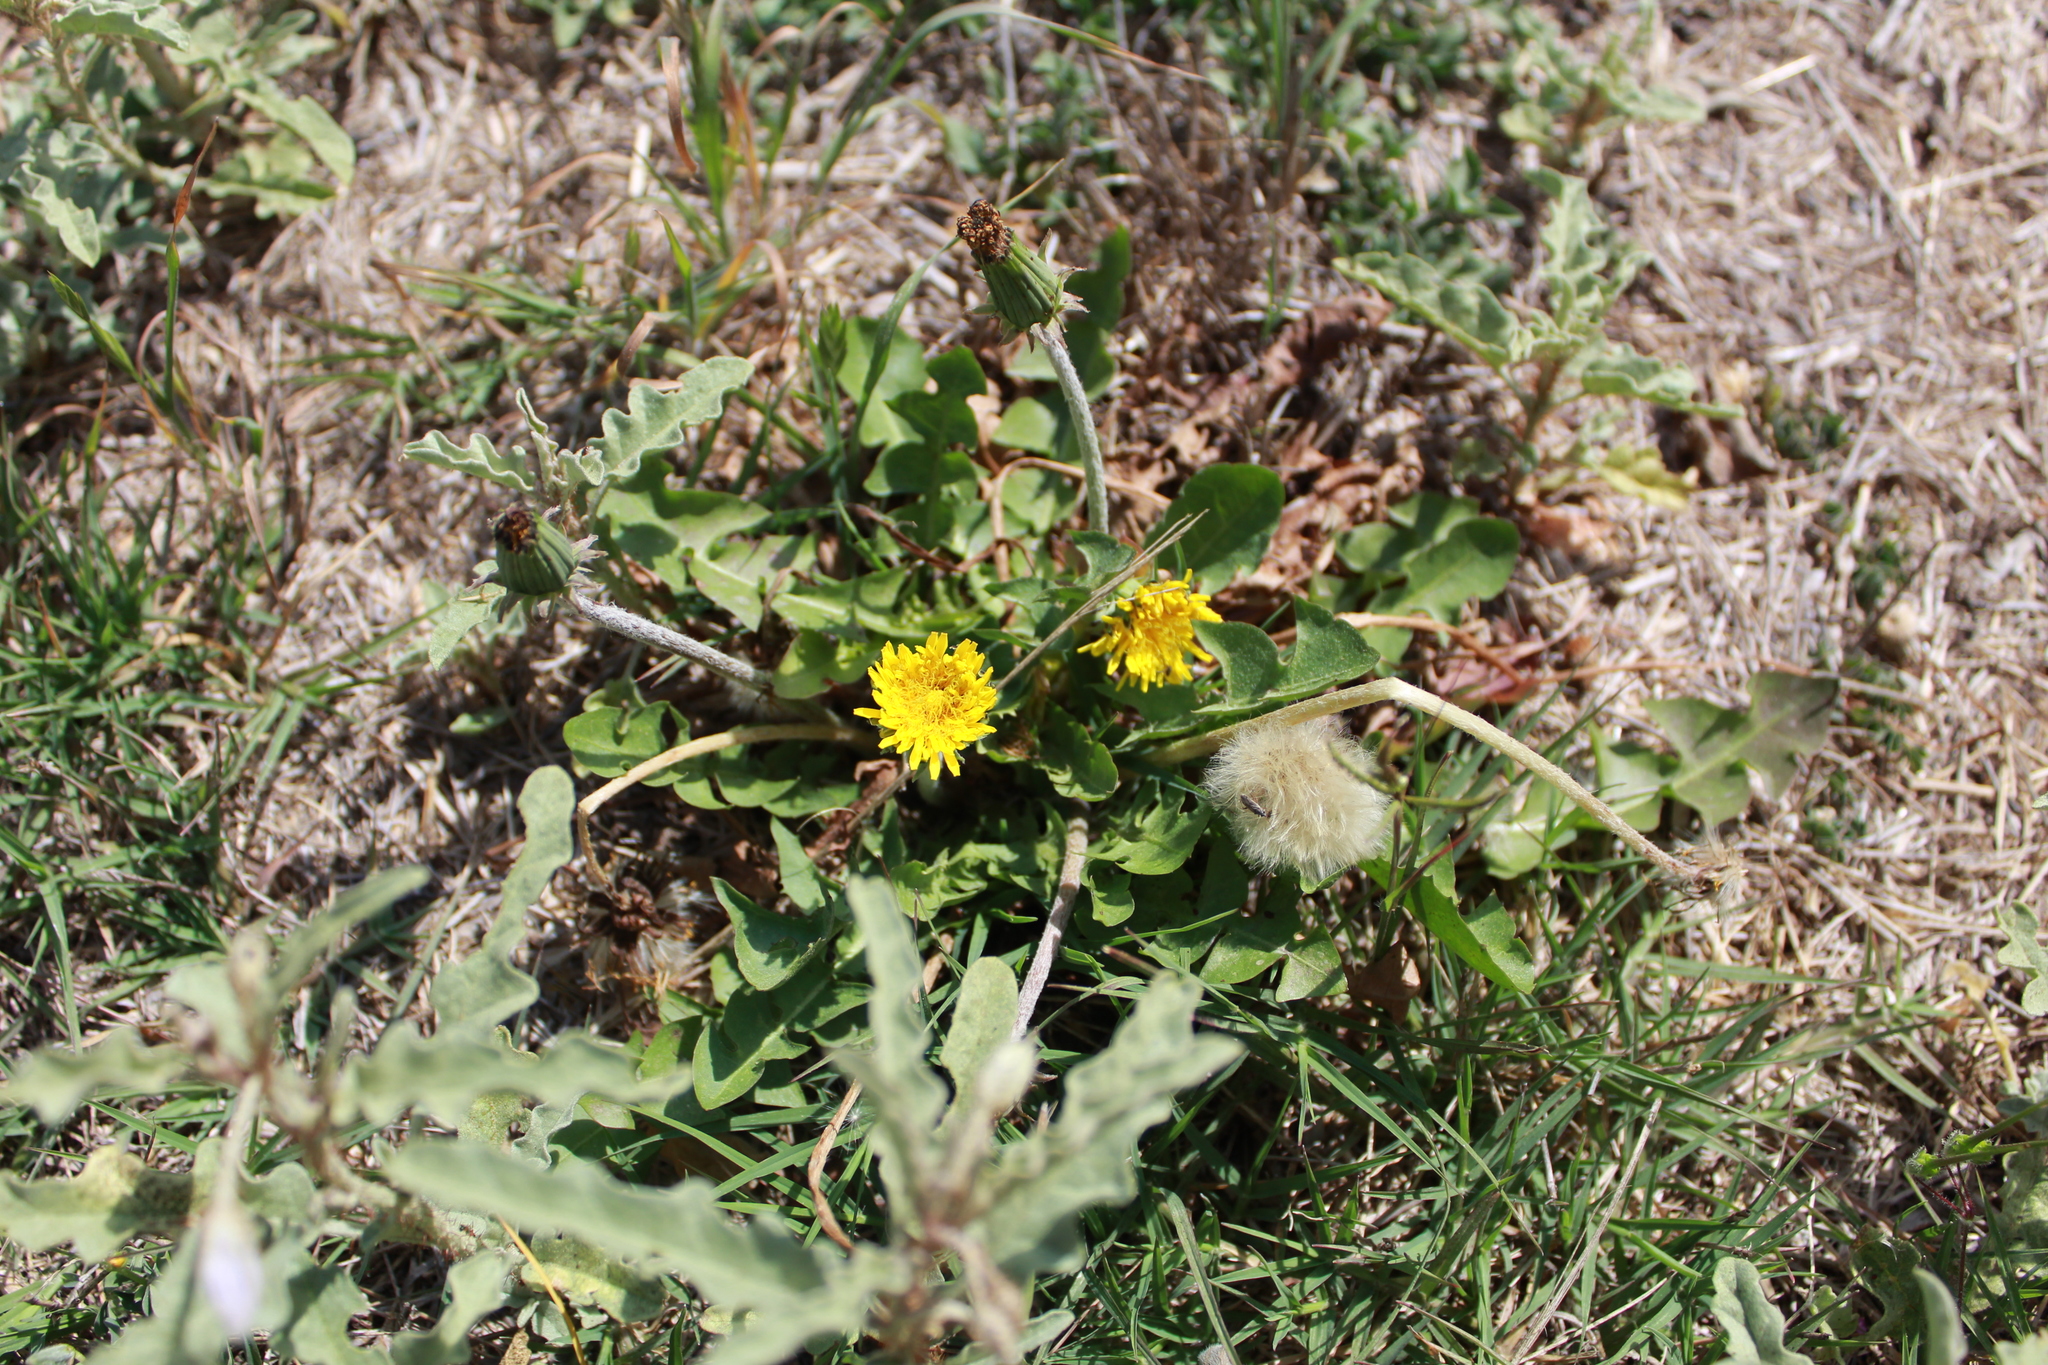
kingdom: Plantae
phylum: Tracheophyta
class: Magnoliopsida
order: Asterales
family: Asteraceae
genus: Taraxacum
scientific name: Taraxacum officinale
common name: Common dandelion
